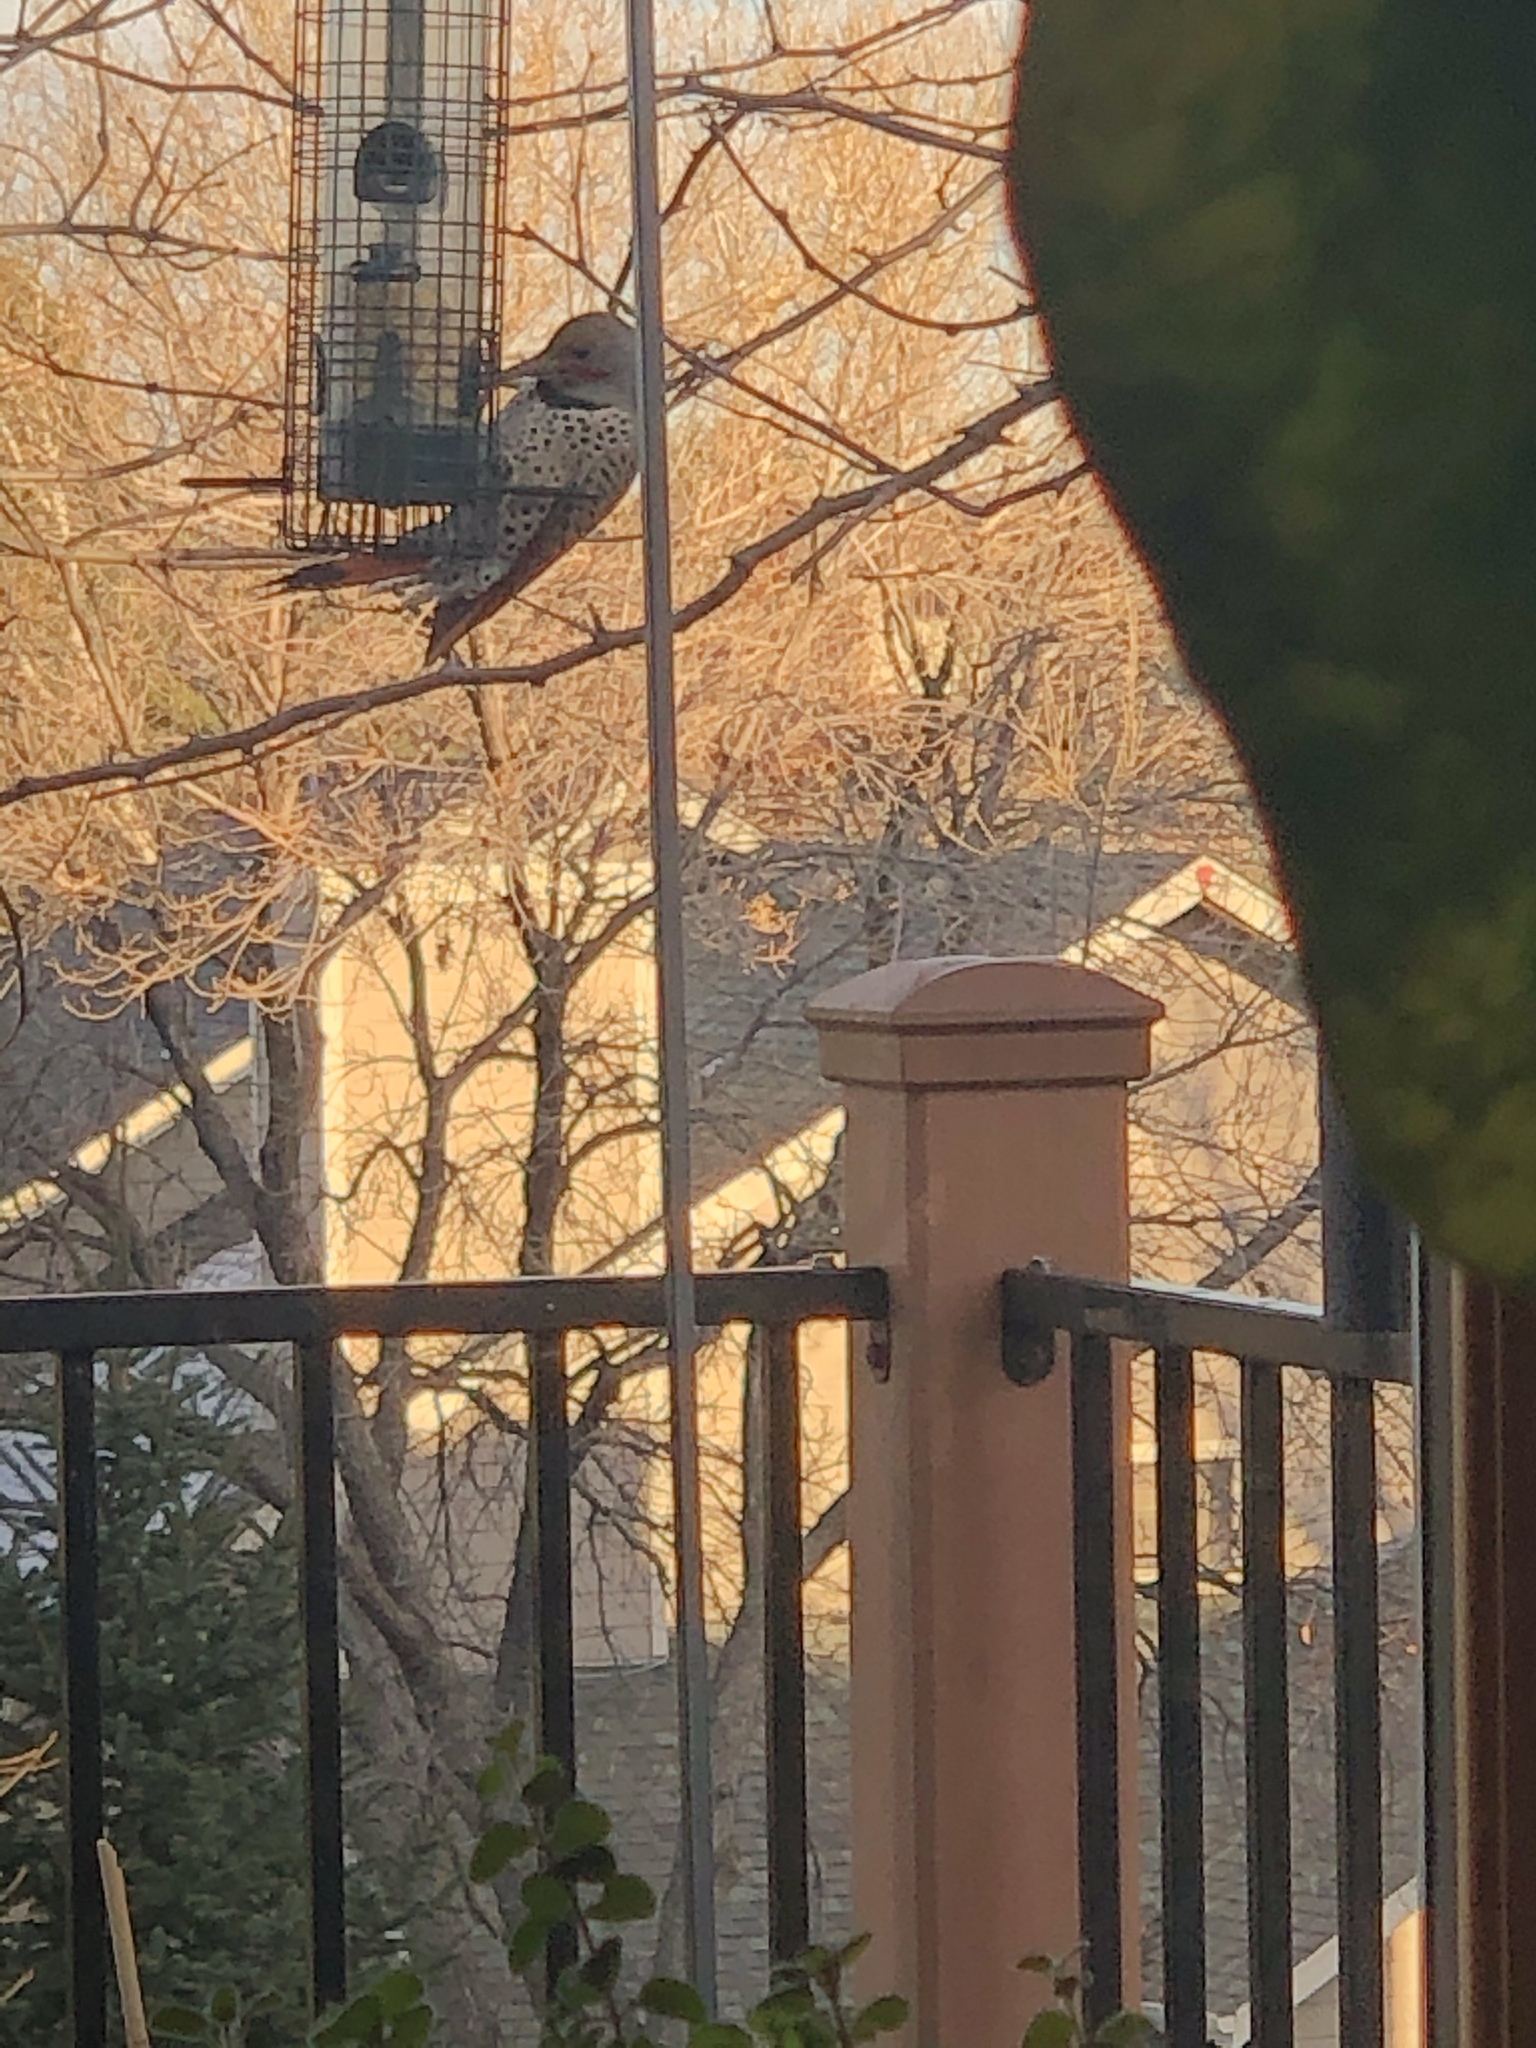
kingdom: Animalia
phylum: Chordata
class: Aves
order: Piciformes
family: Picidae
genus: Colaptes
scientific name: Colaptes auratus
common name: Northern flicker
